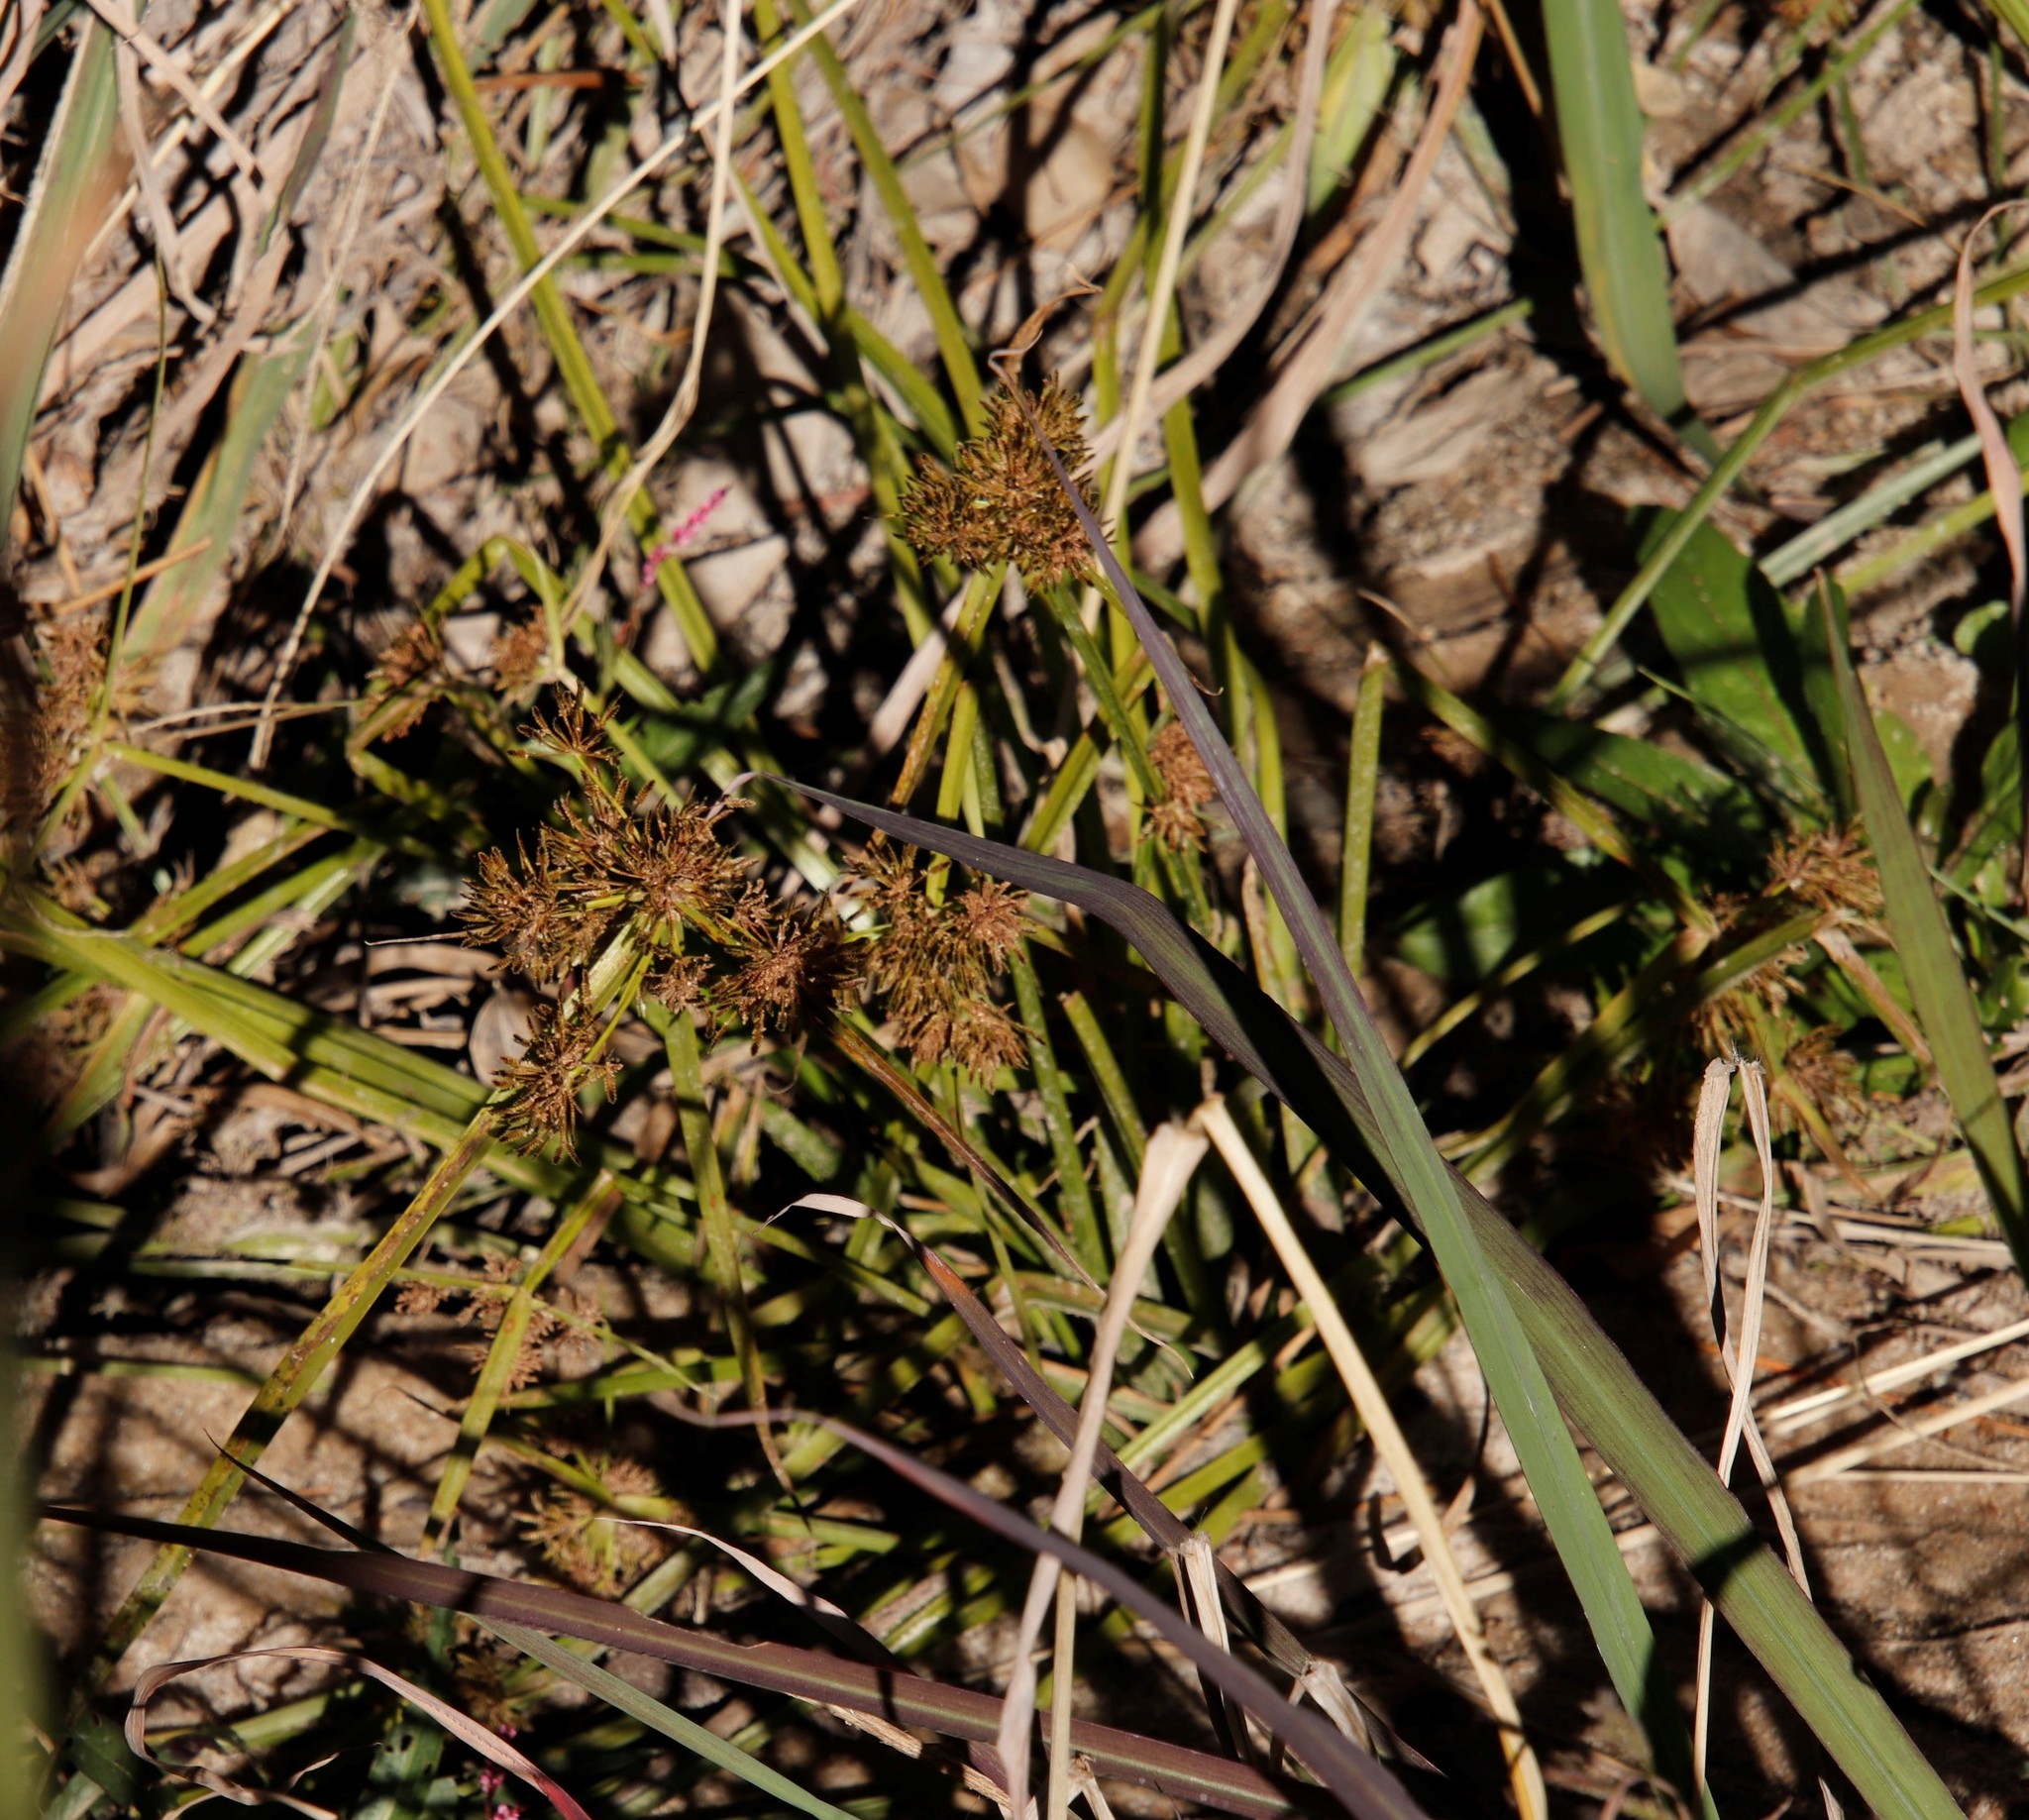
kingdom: Plantae
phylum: Tracheophyta
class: Liliopsida
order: Poales
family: Cyperaceae
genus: Cyperus
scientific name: Cyperus difformis
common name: Variable flatsedge
